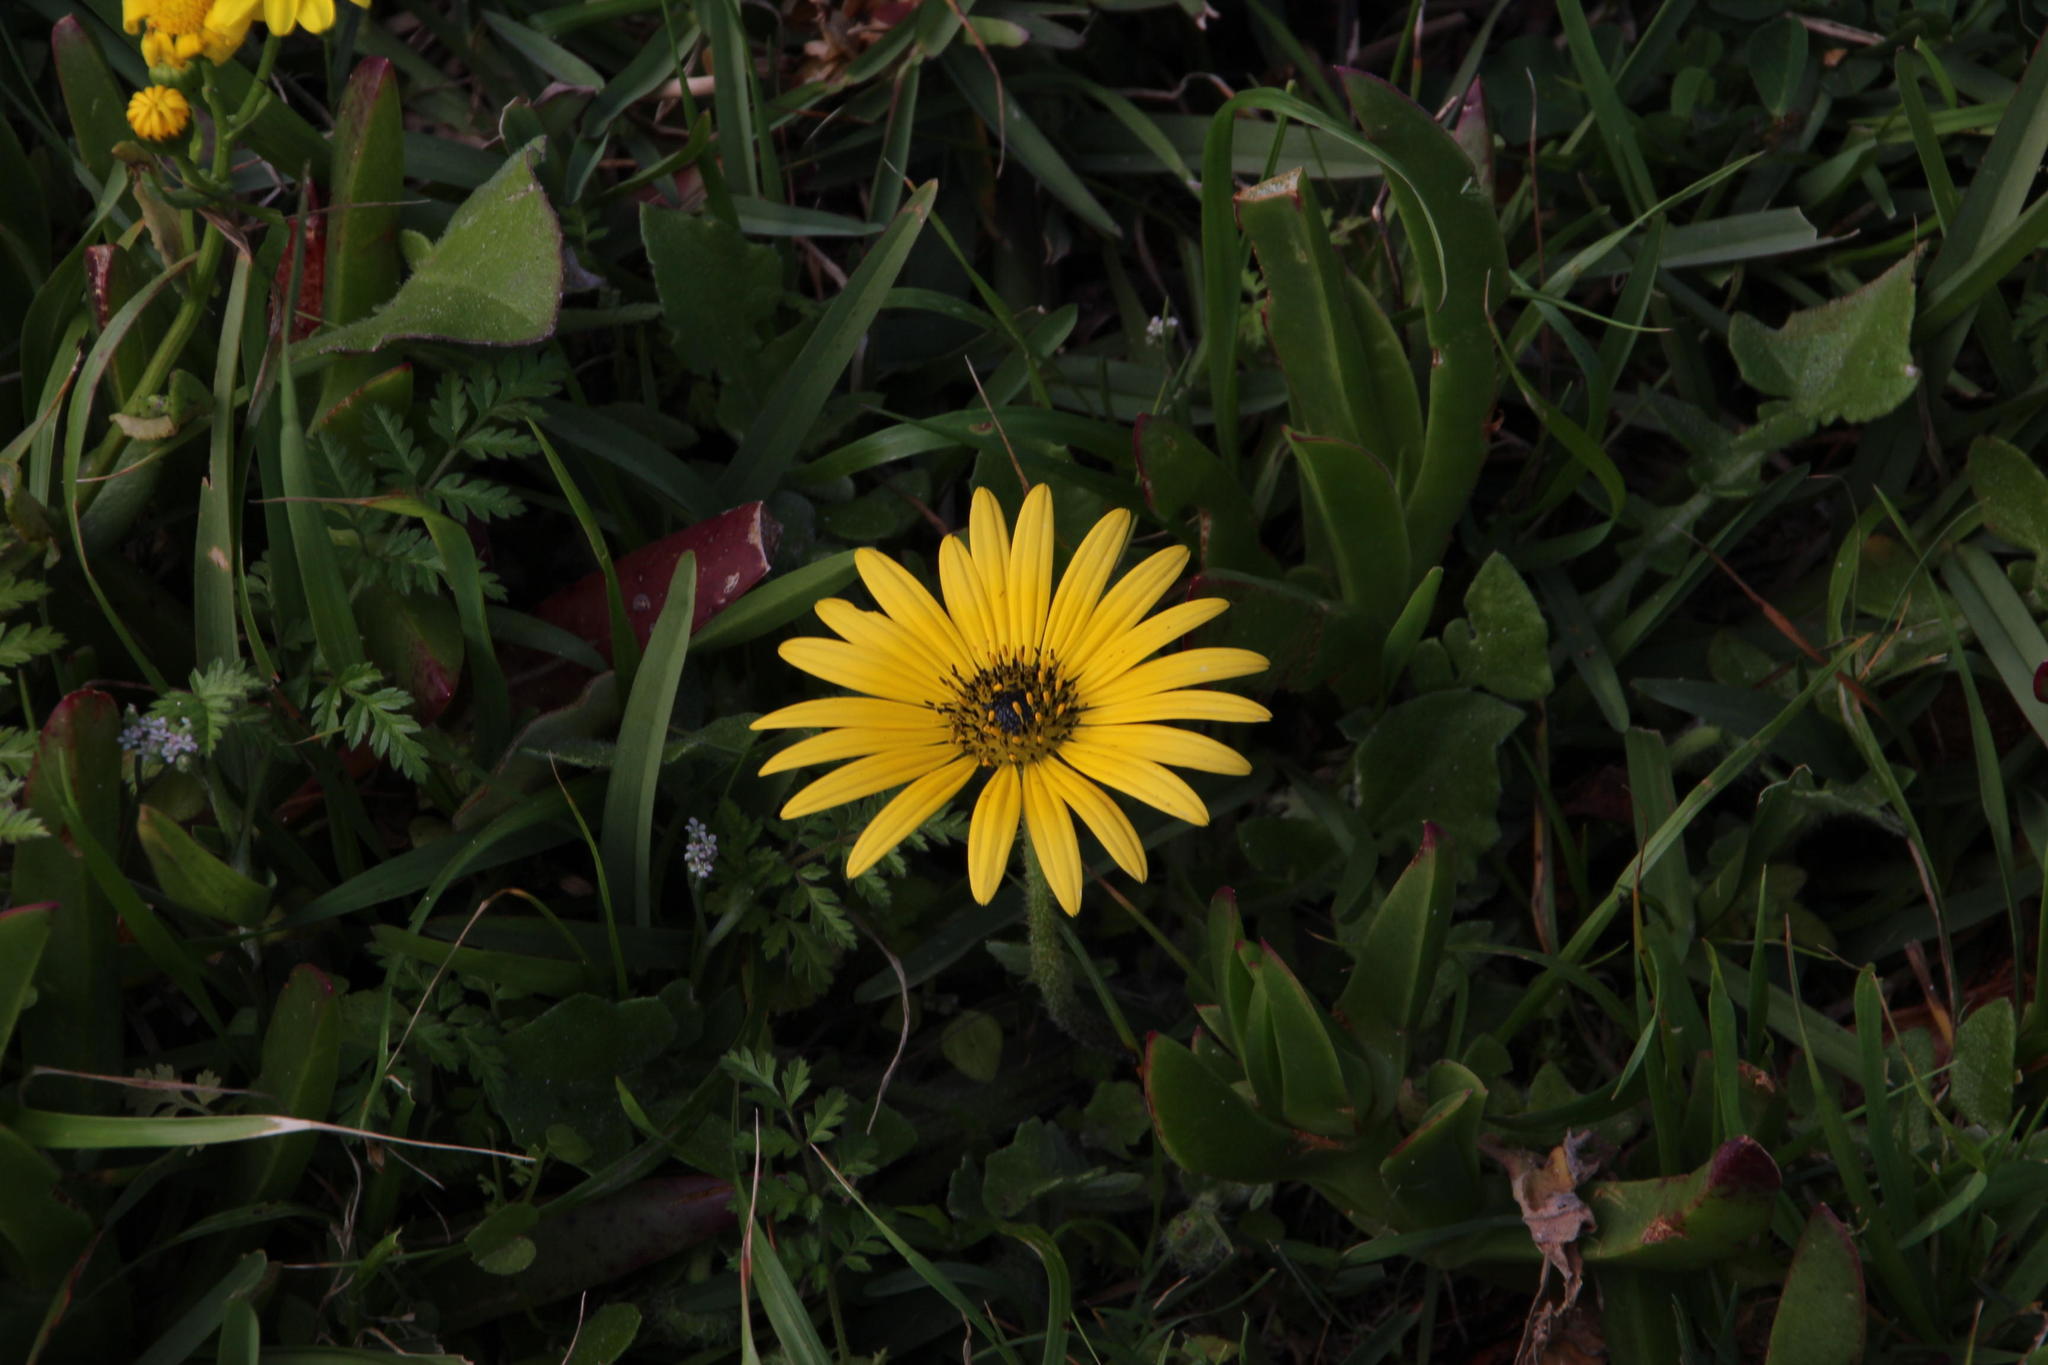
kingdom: Plantae
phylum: Tracheophyta
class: Magnoliopsida
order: Asterales
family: Asteraceae
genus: Arctotheca
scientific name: Arctotheca calendula
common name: Capeweed
